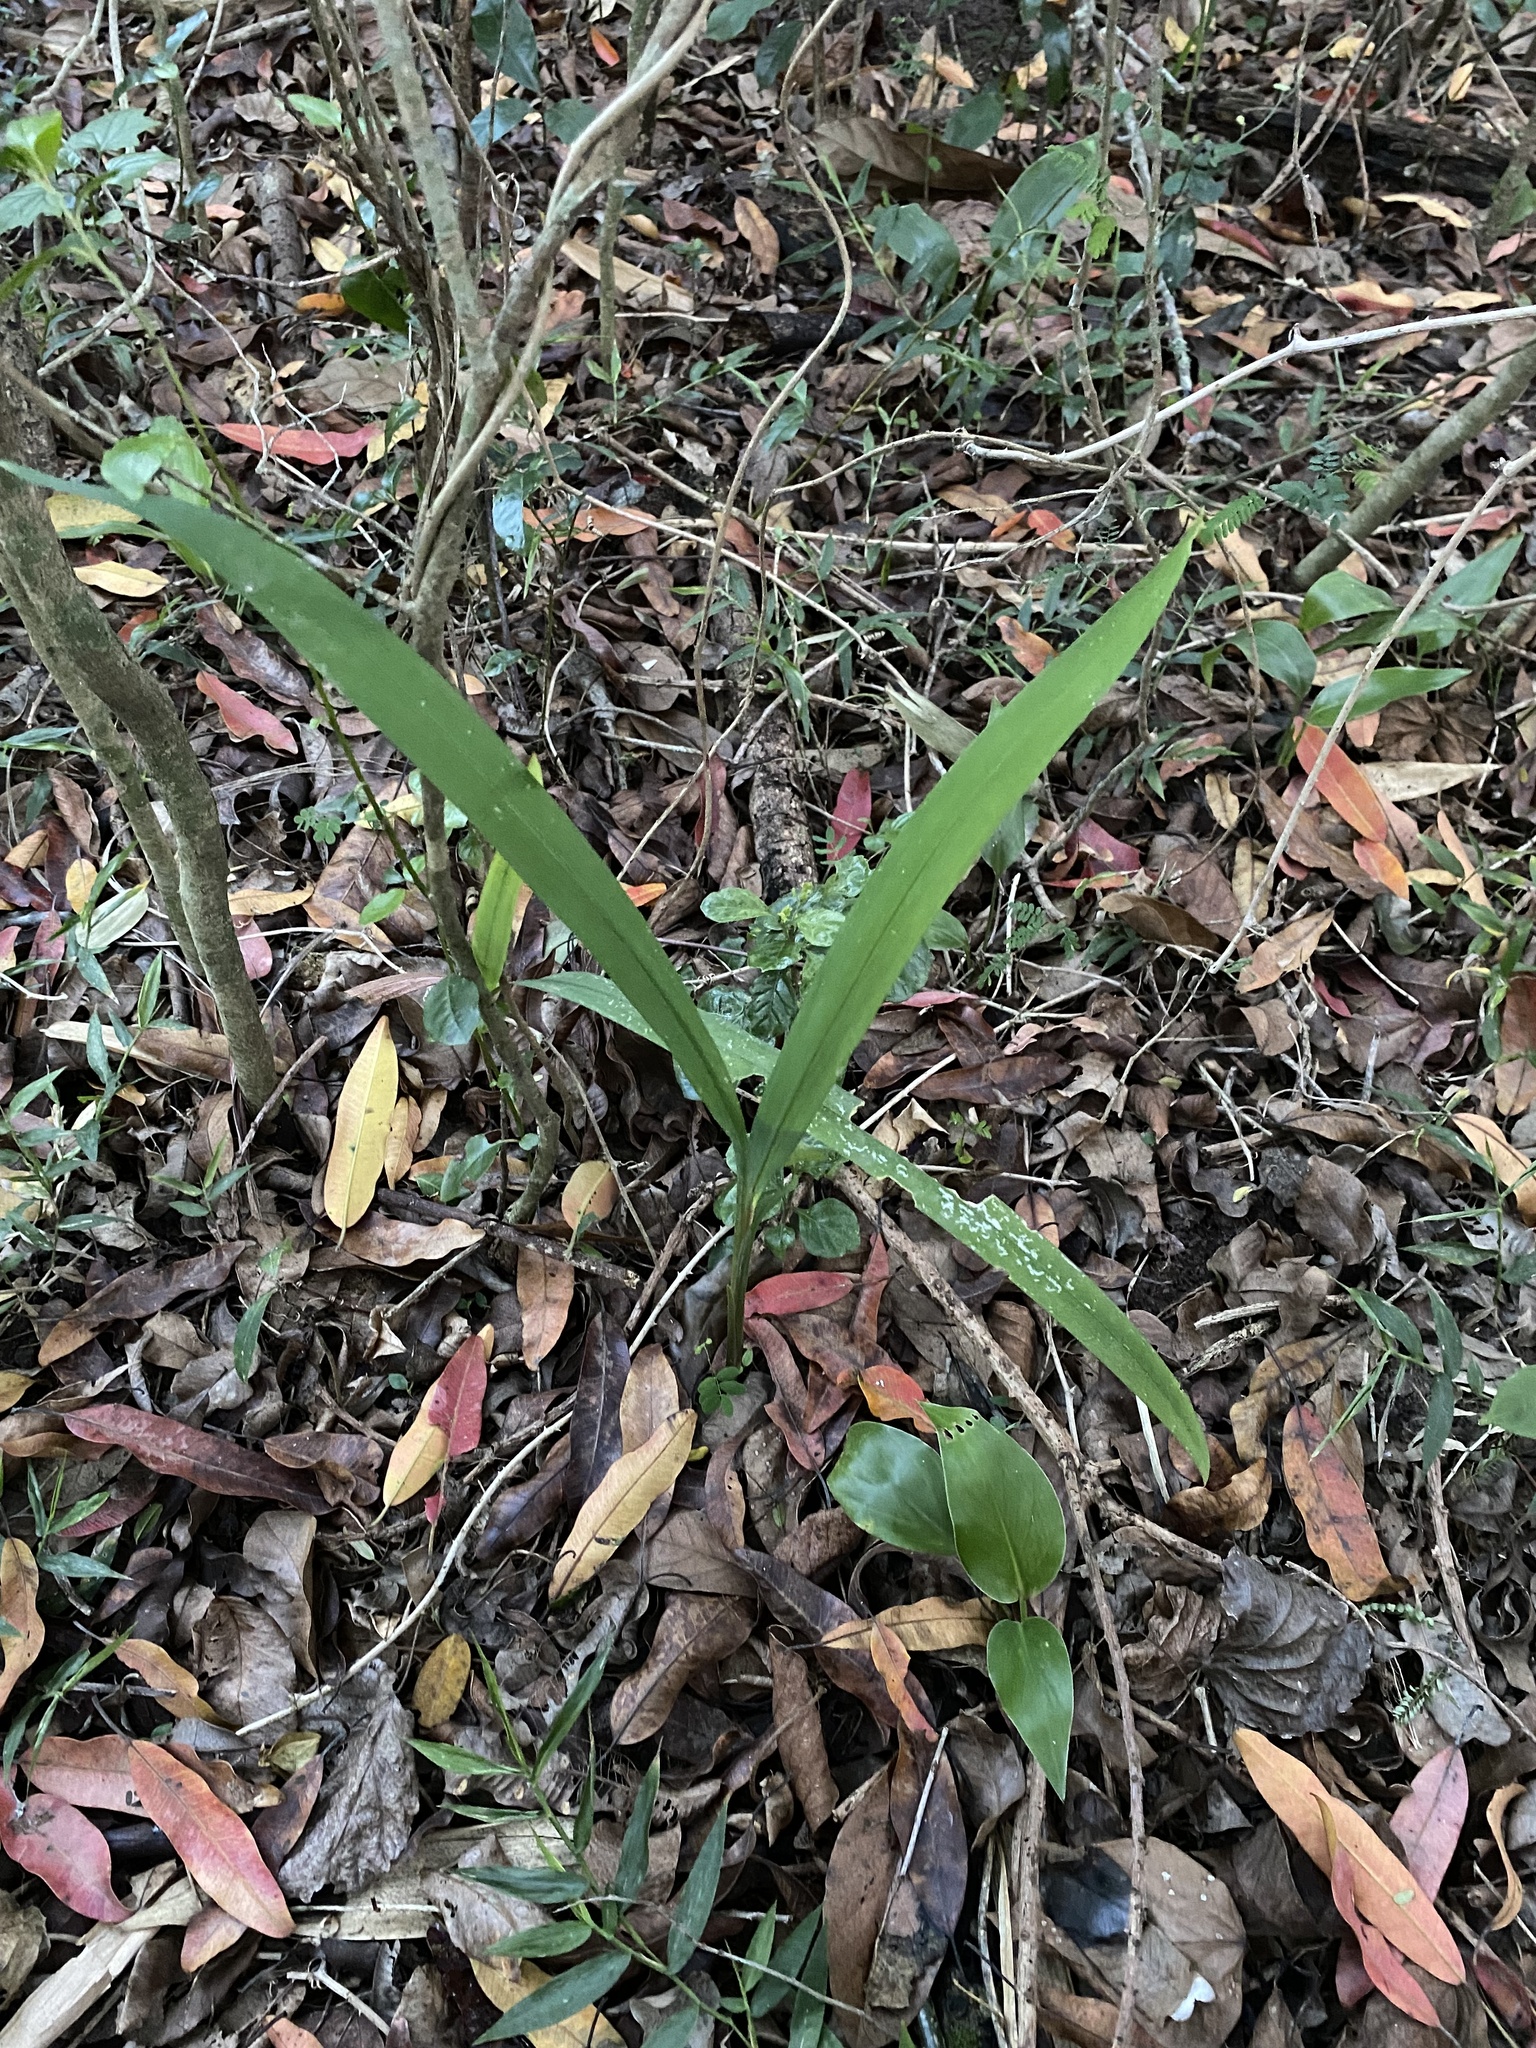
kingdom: Plantae
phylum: Tracheophyta
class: Liliopsida
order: Asparagales
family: Iridaceae
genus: Crocosmia
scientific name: Crocosmia aurea
